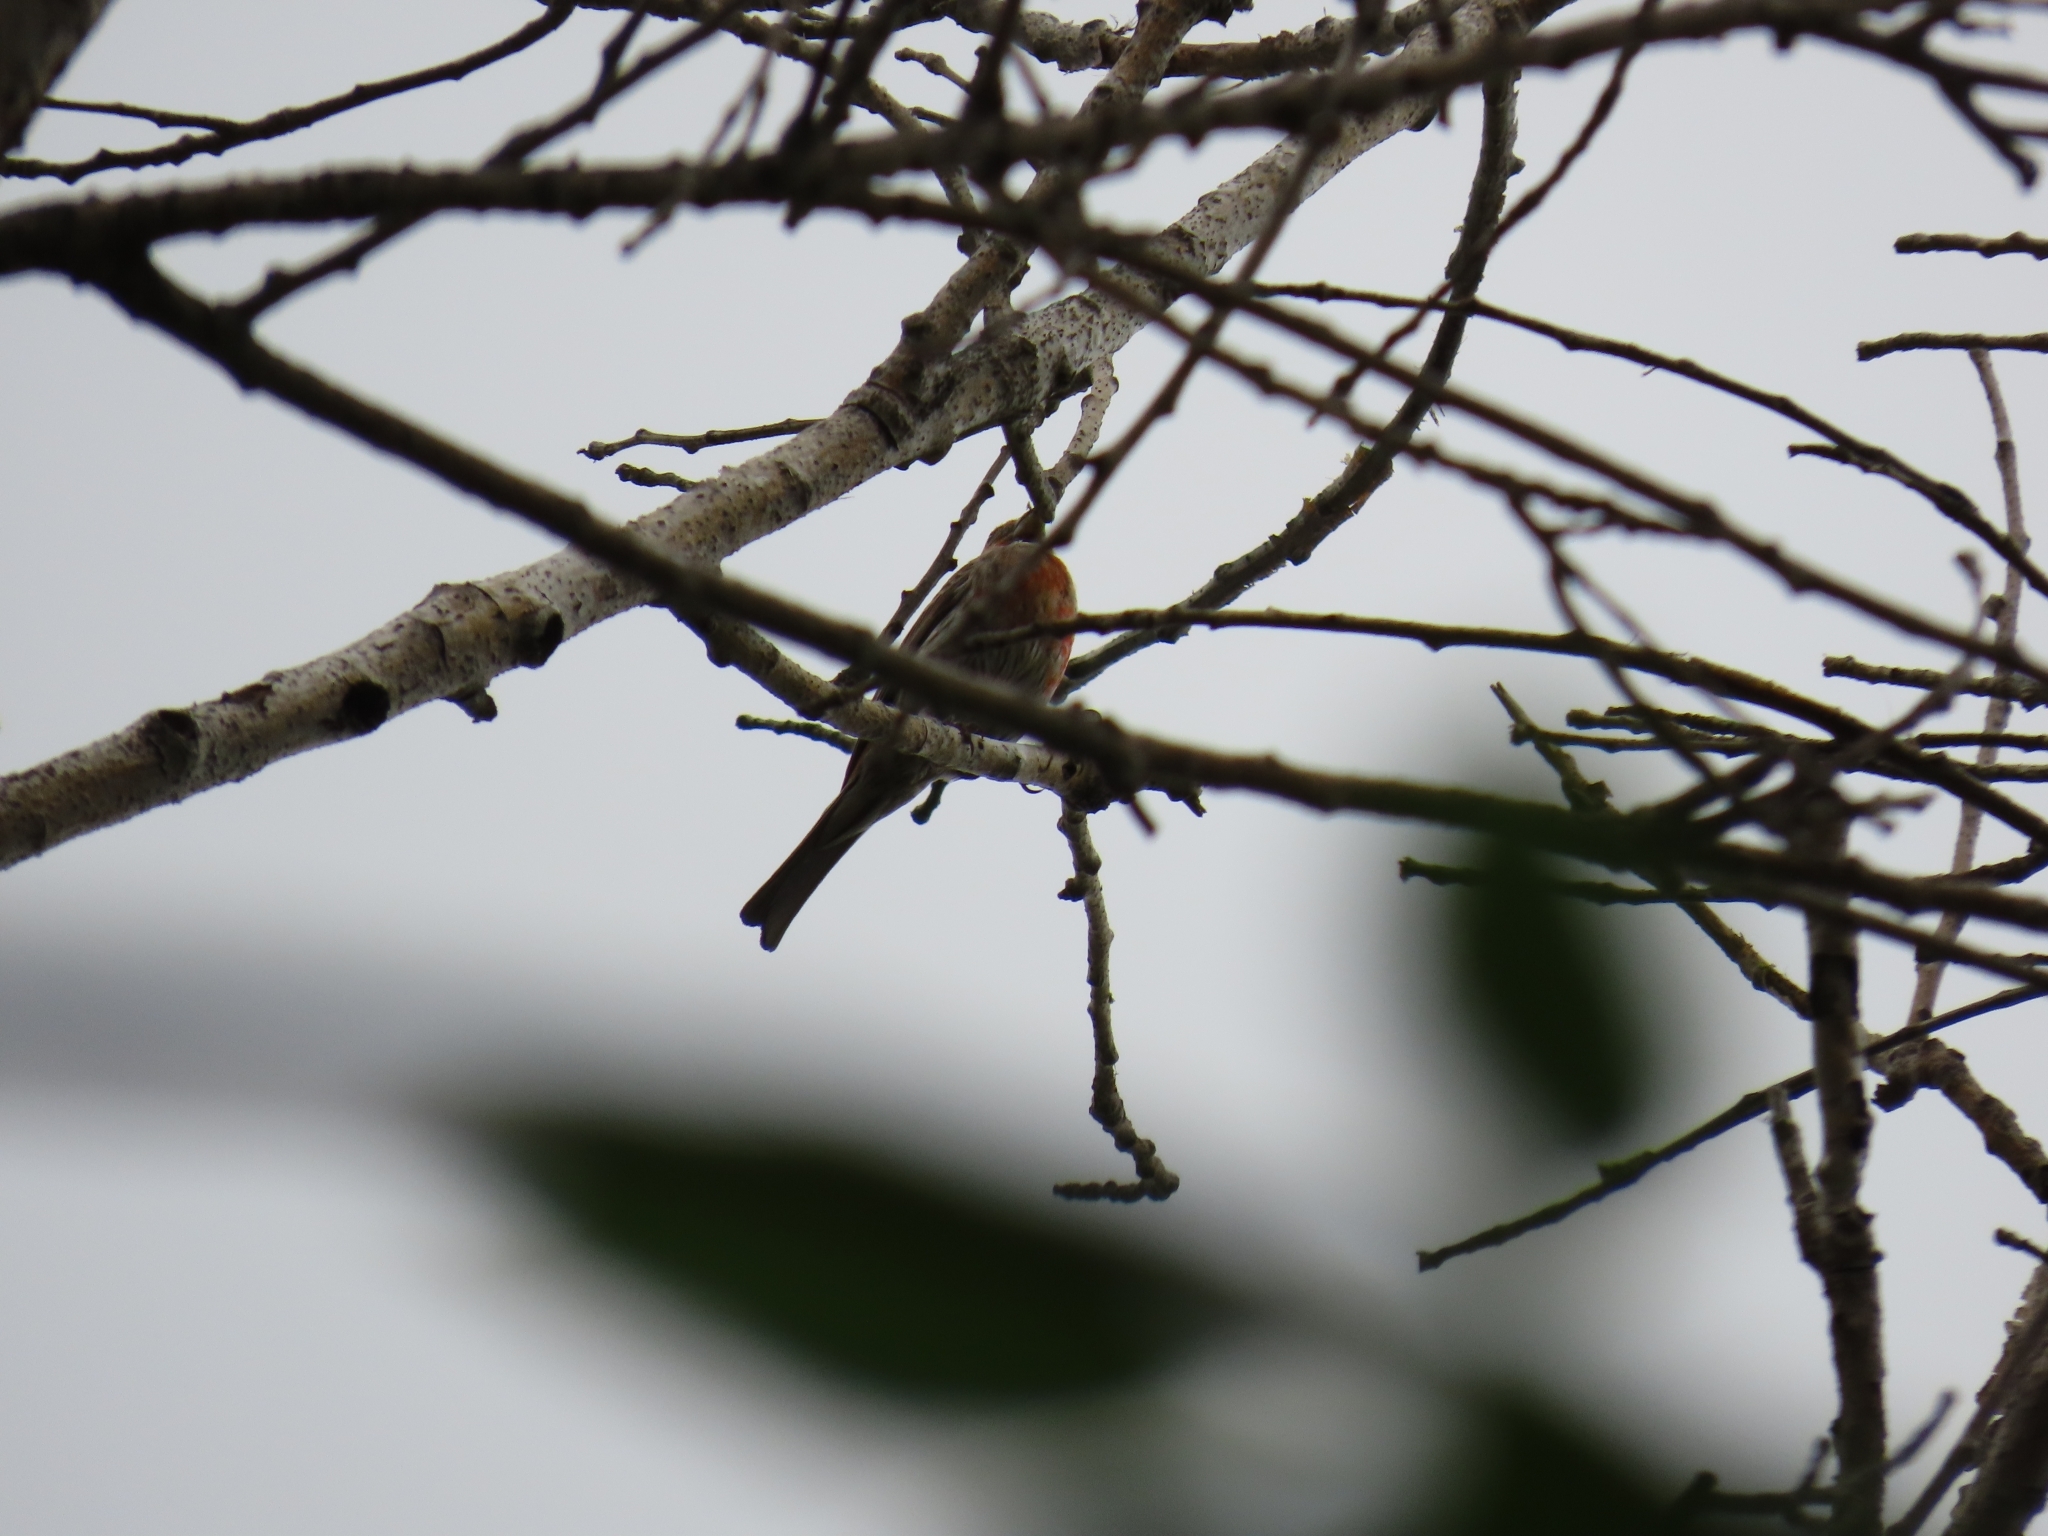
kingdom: Animalia
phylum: Chordata
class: Aves
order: Passeriformes
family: Fringillidae
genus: Haemorhous
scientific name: Haemorhous mexicanus
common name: House finch
